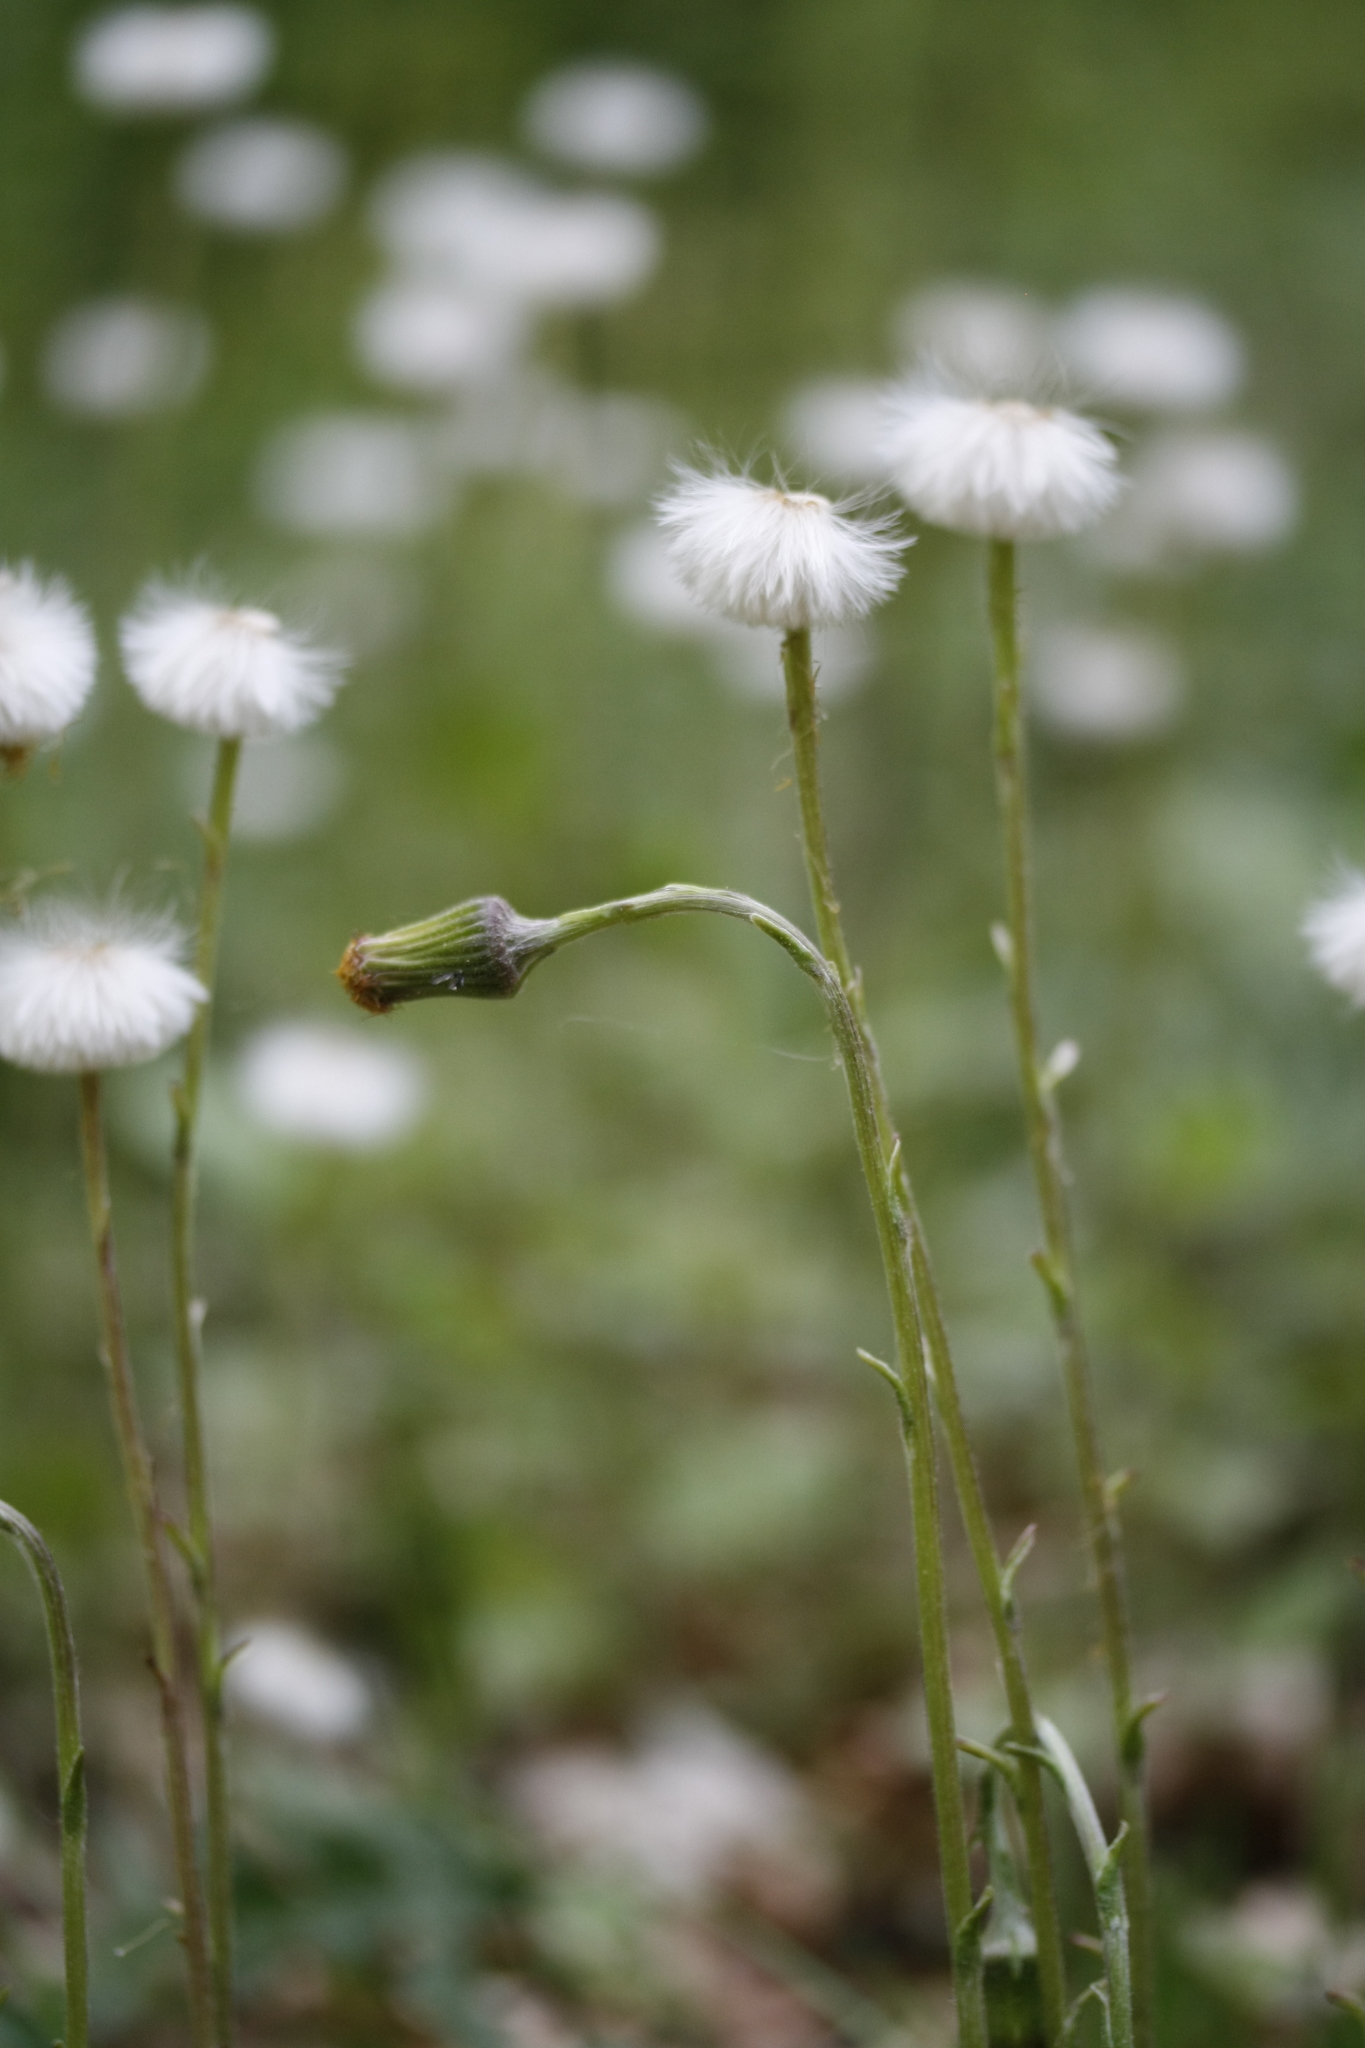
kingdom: Plantae
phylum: Tracheophyta
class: Magnoliopsida
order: Asterales
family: Asteraceae
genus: Tussilago
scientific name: Tussilago farfara
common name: Coltsfoot
